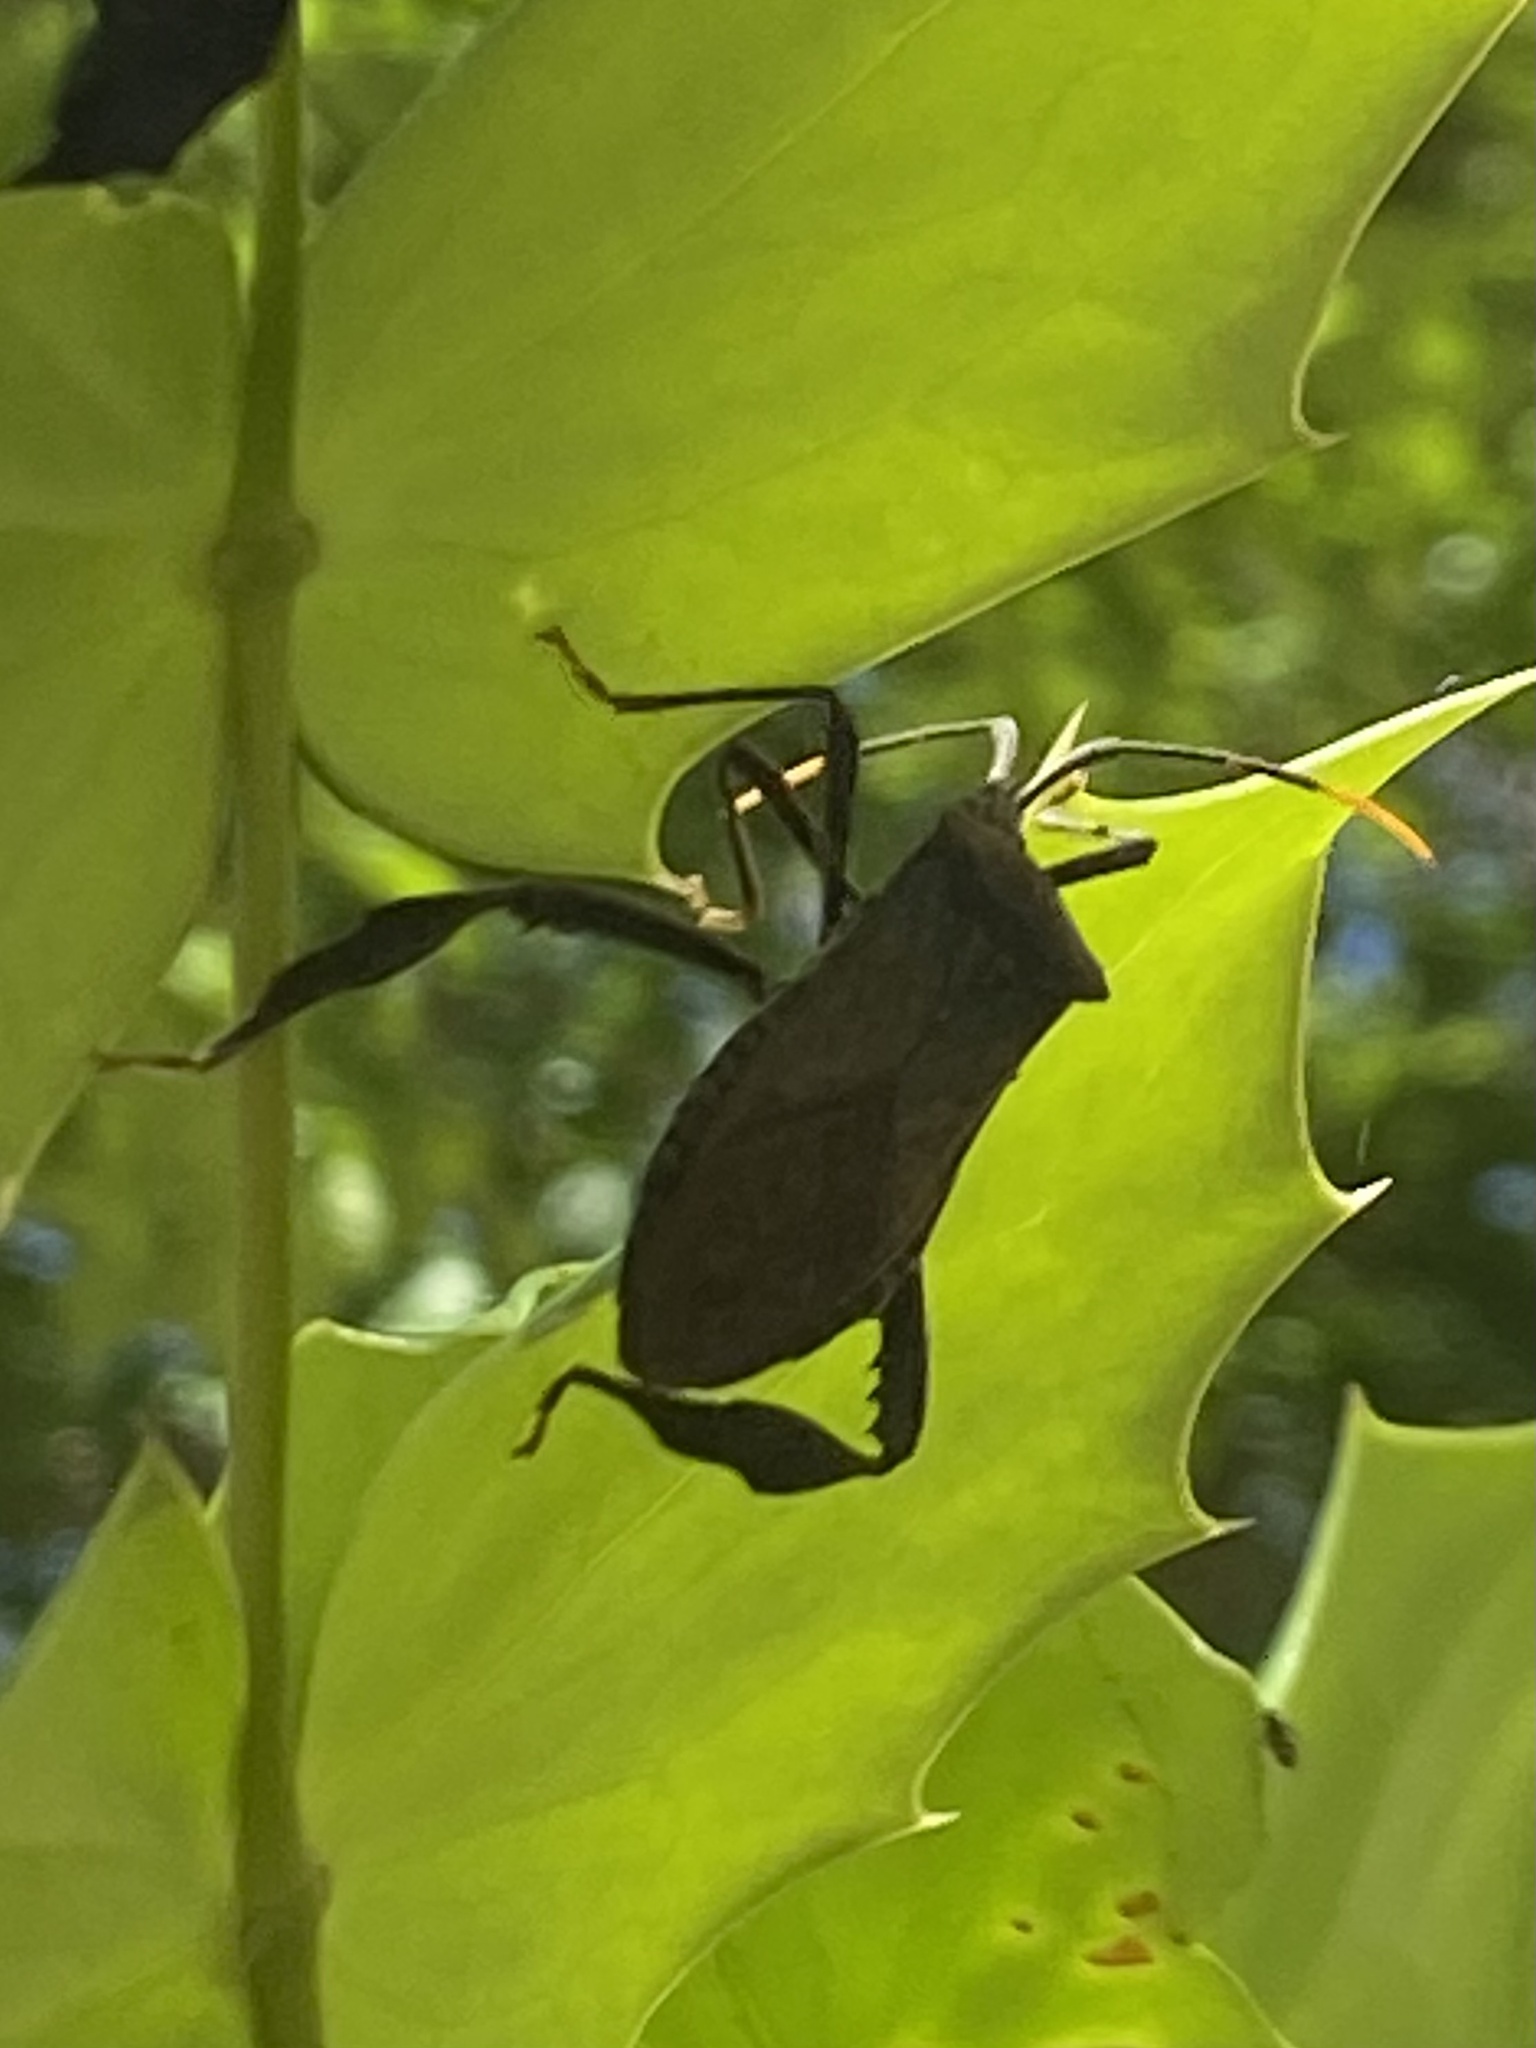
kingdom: Animalia
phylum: Arthropoda
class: Insecta
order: Hemiptera
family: Coreidae
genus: Acanthocephala
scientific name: Acanthocephala terminalis
